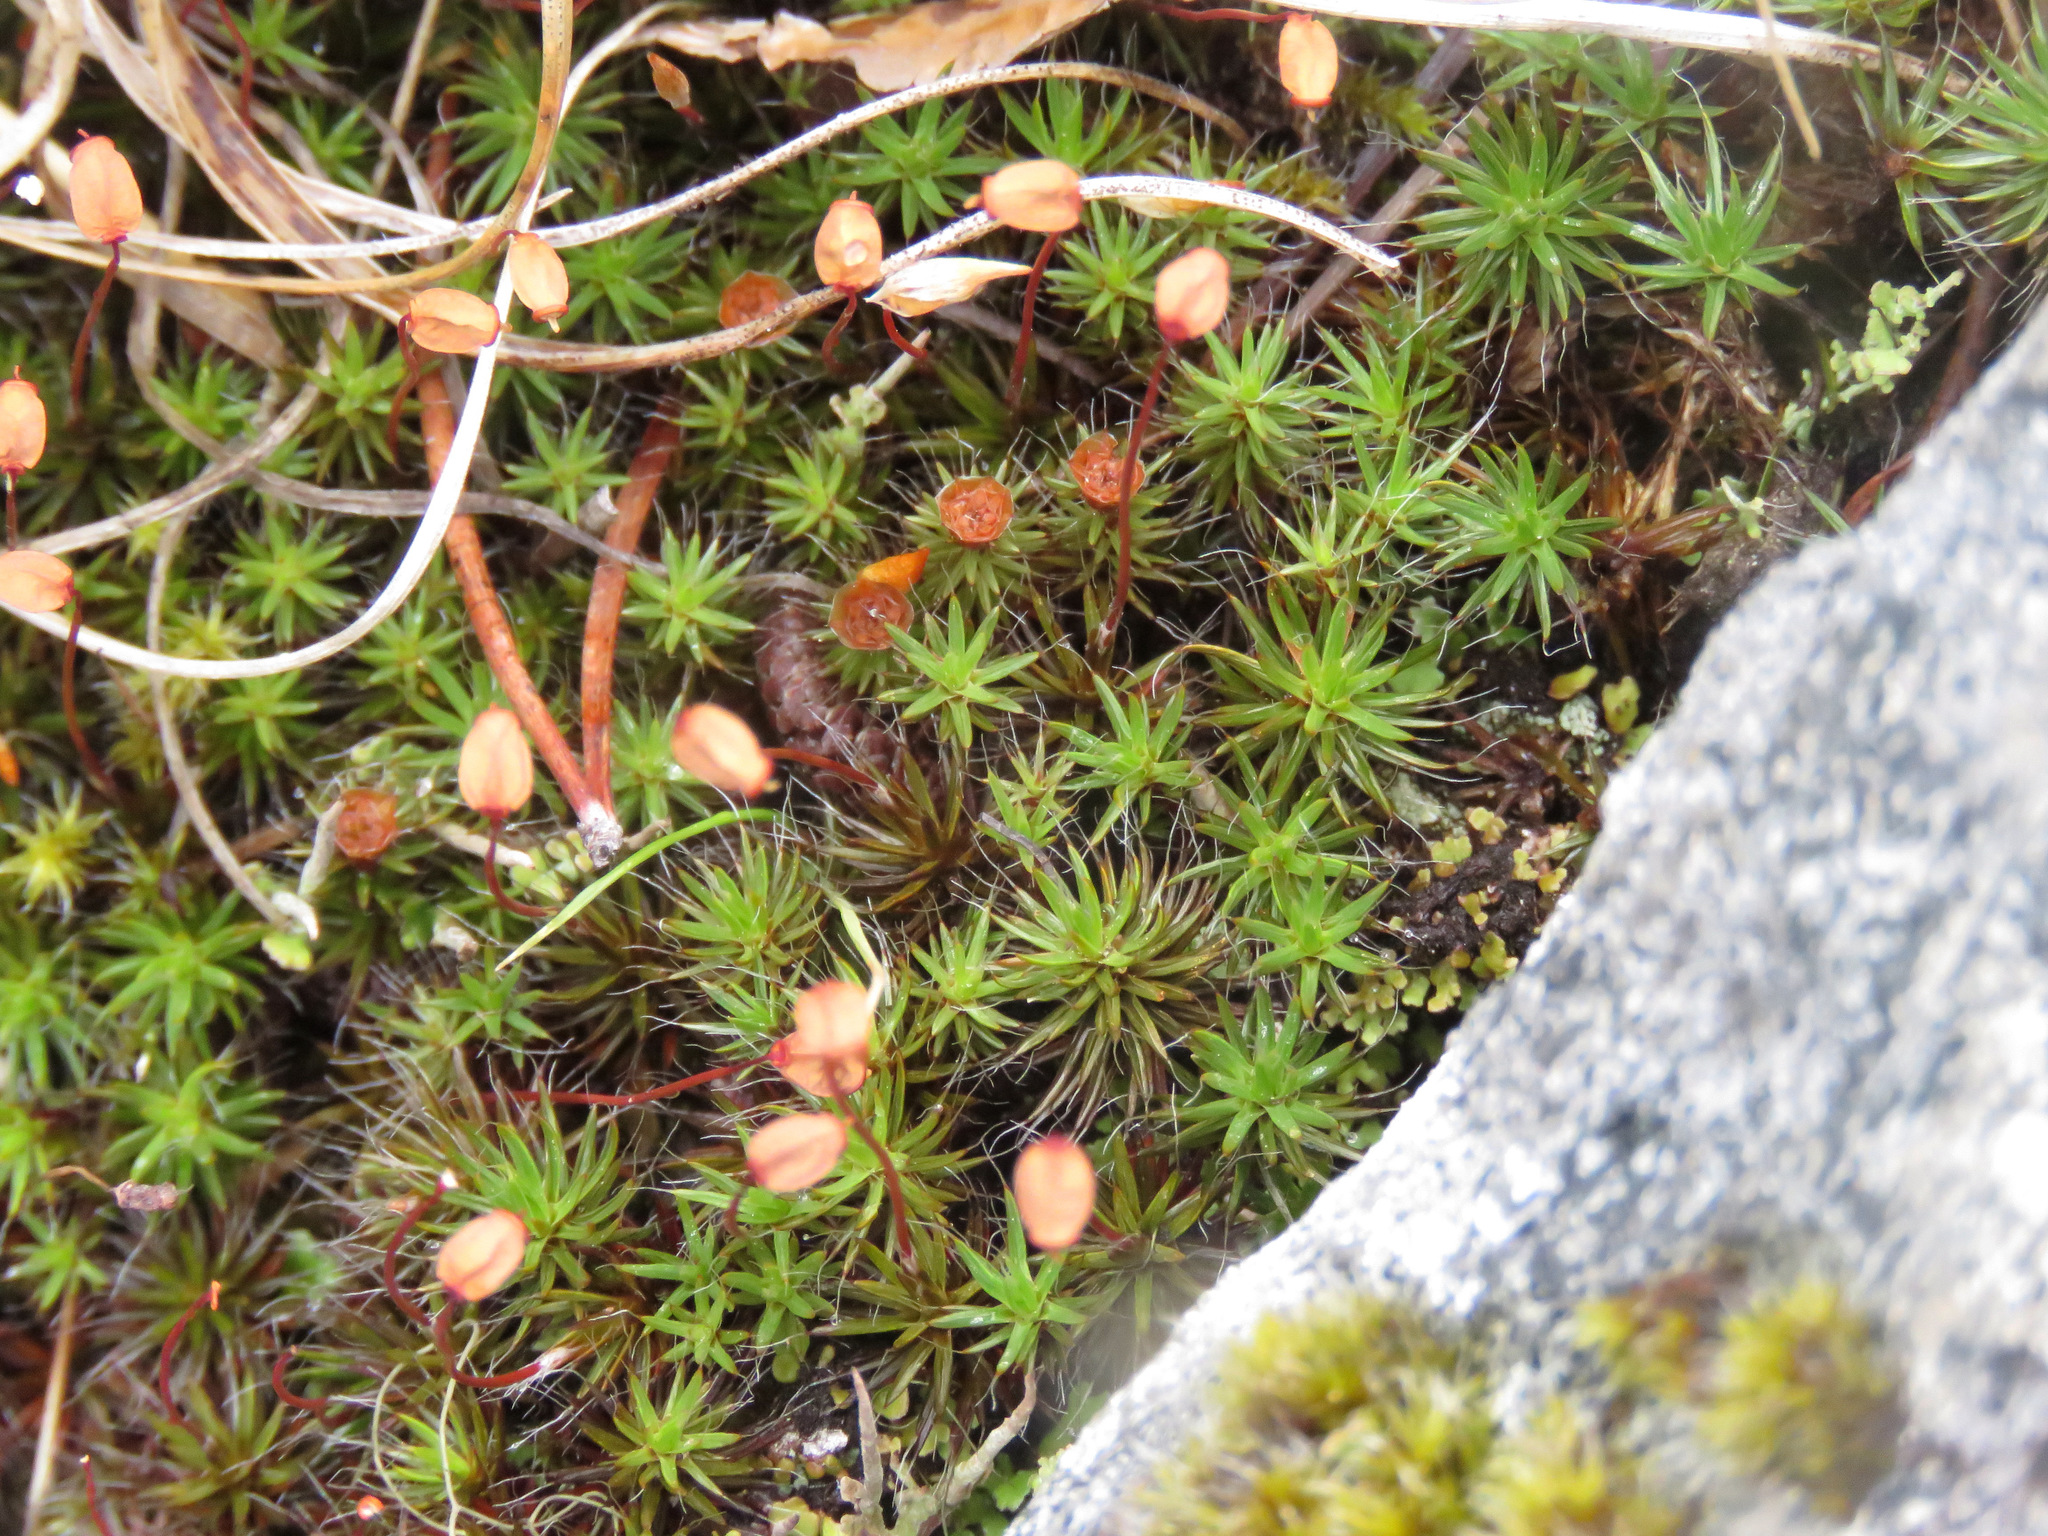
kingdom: Plantae
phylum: Bryophyta
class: Polytrichopsida
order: Polytrichales
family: Polytrichaceae
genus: Polytrichum
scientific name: Polytrichum piliferum
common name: Bristly haircap
